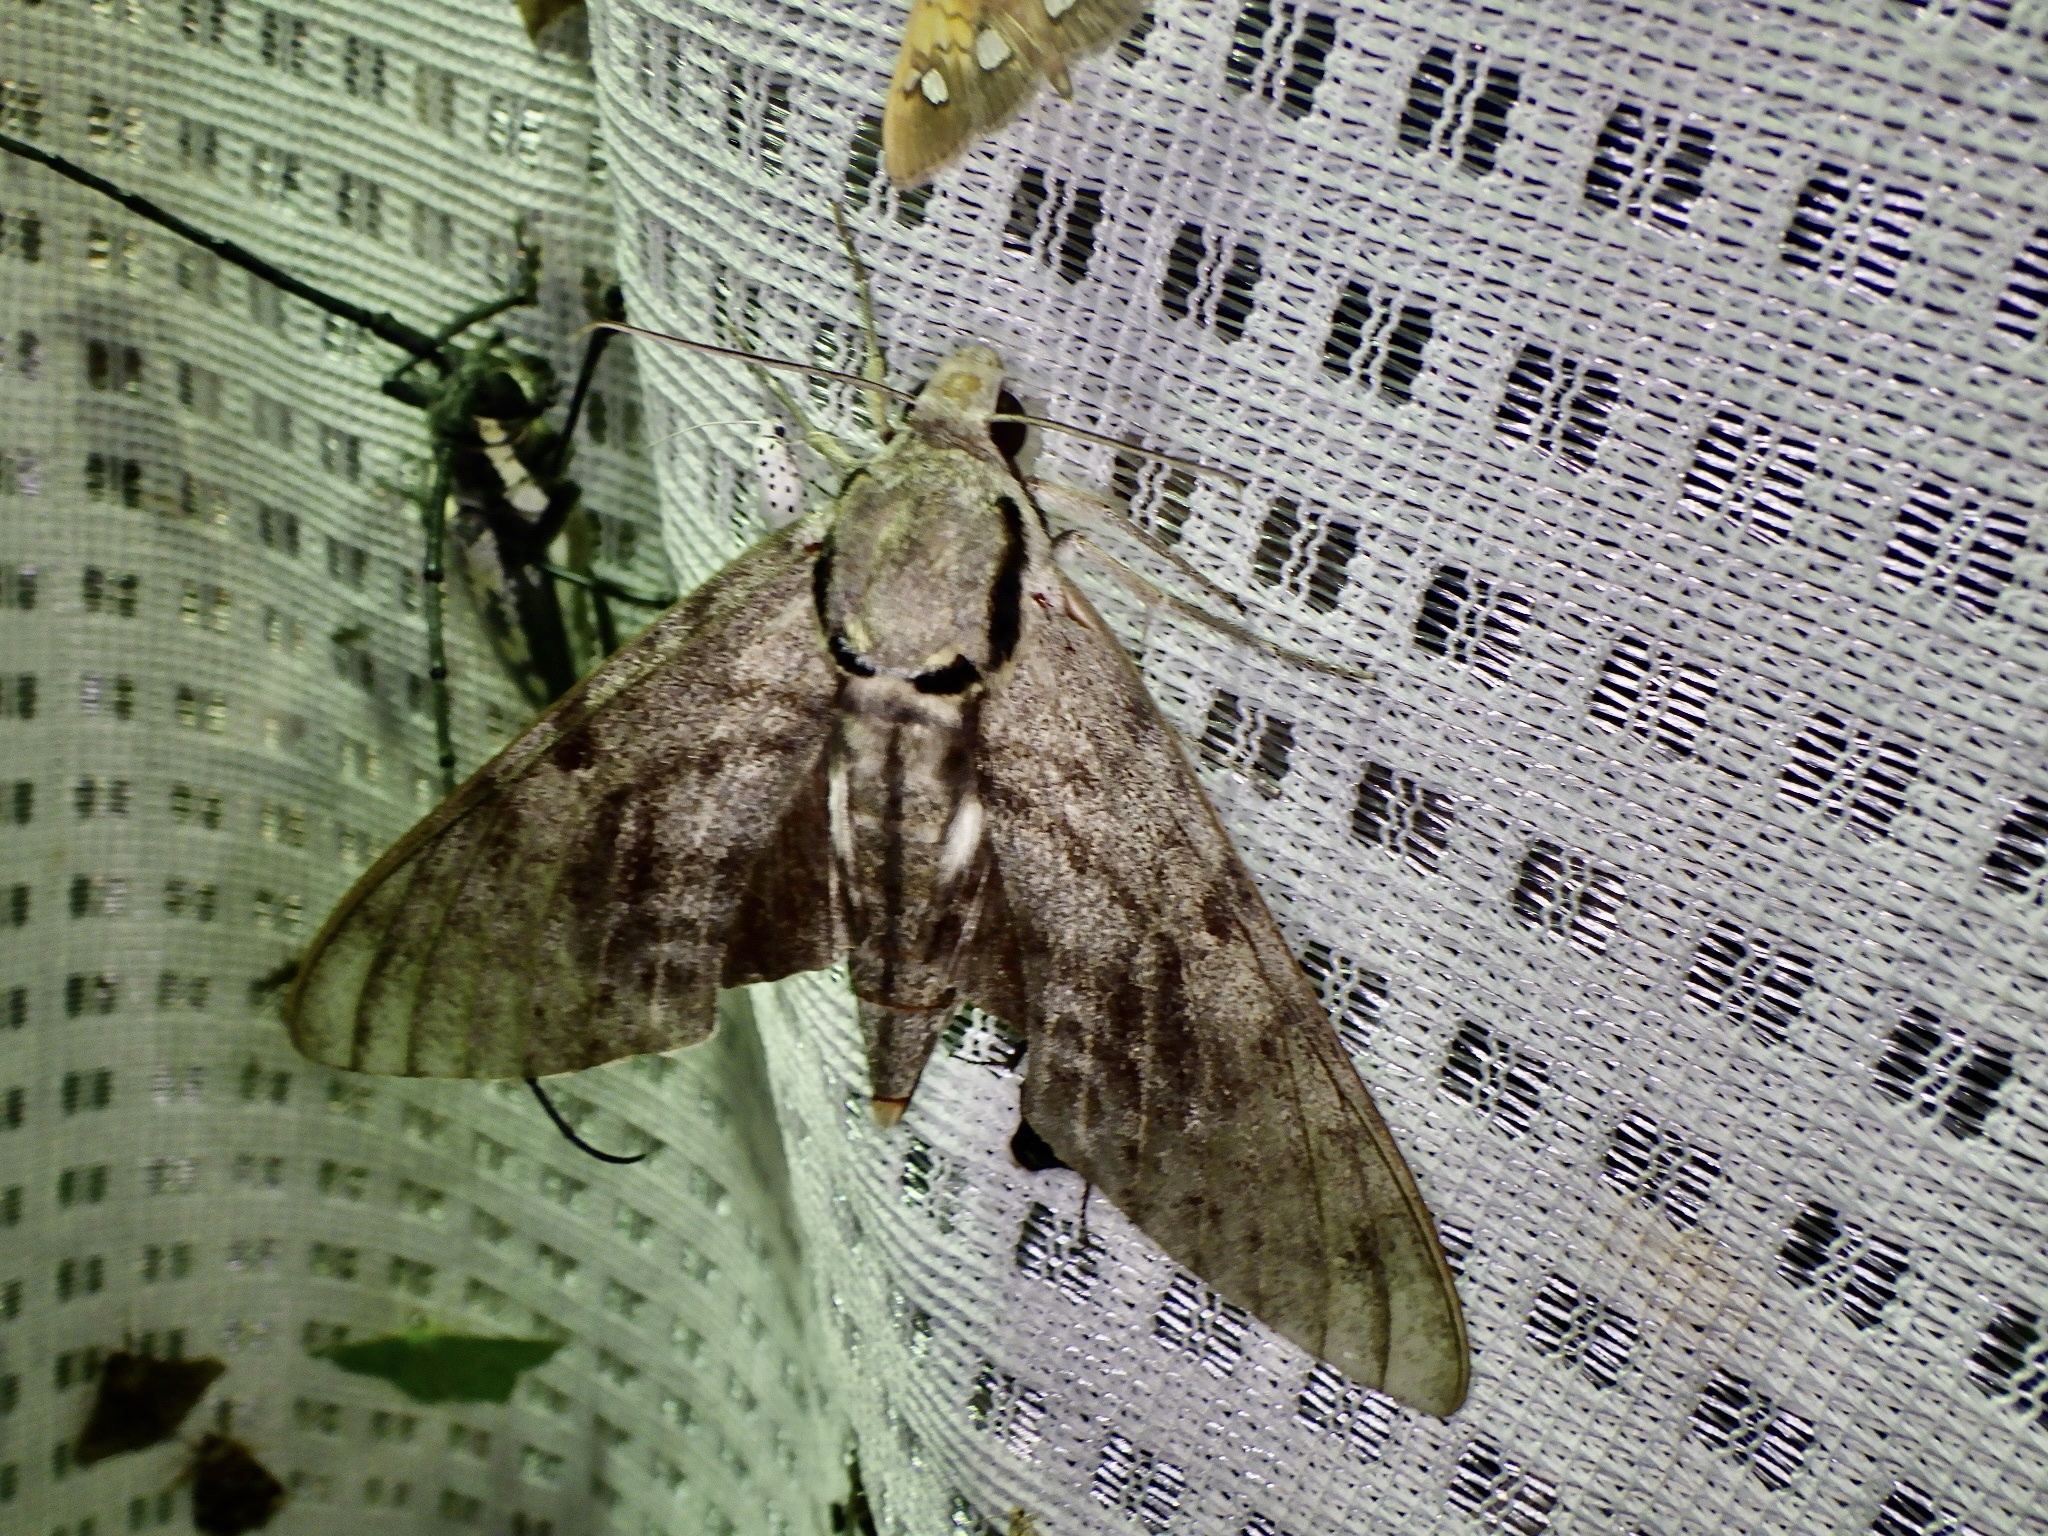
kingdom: Animalia
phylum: Arthropoda
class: Insecta
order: Lepidoptera
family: Sphingidae
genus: Notonagemia
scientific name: Notonagemia analis
